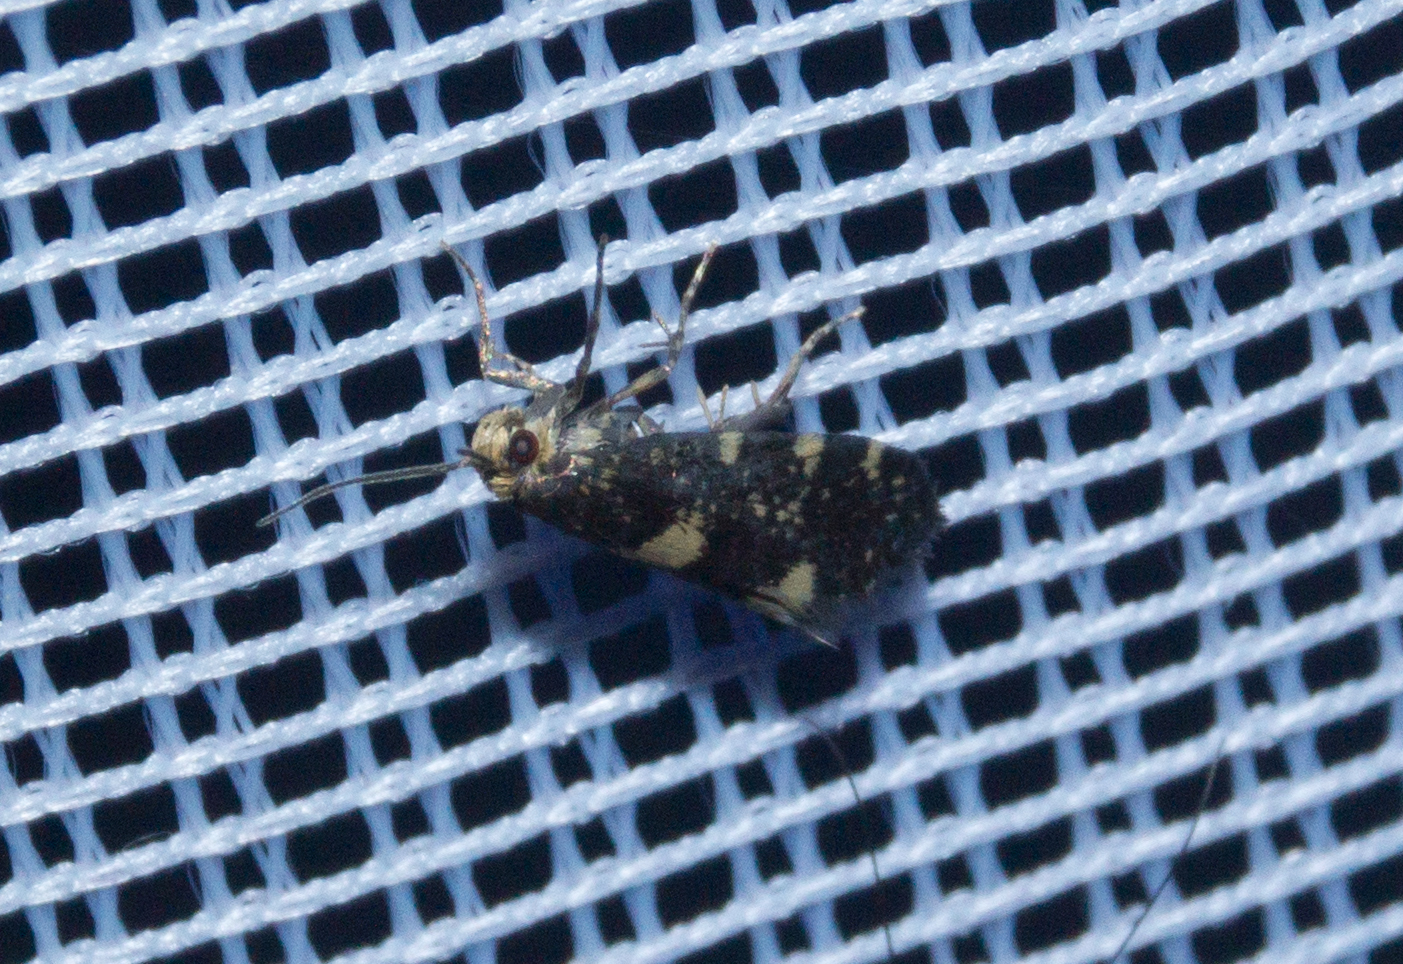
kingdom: Animalia
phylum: Arthropoda
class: Insecta
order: Lepidoptera
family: Incurvariidae
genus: Incurvaria
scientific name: Incurvaria rubiella
